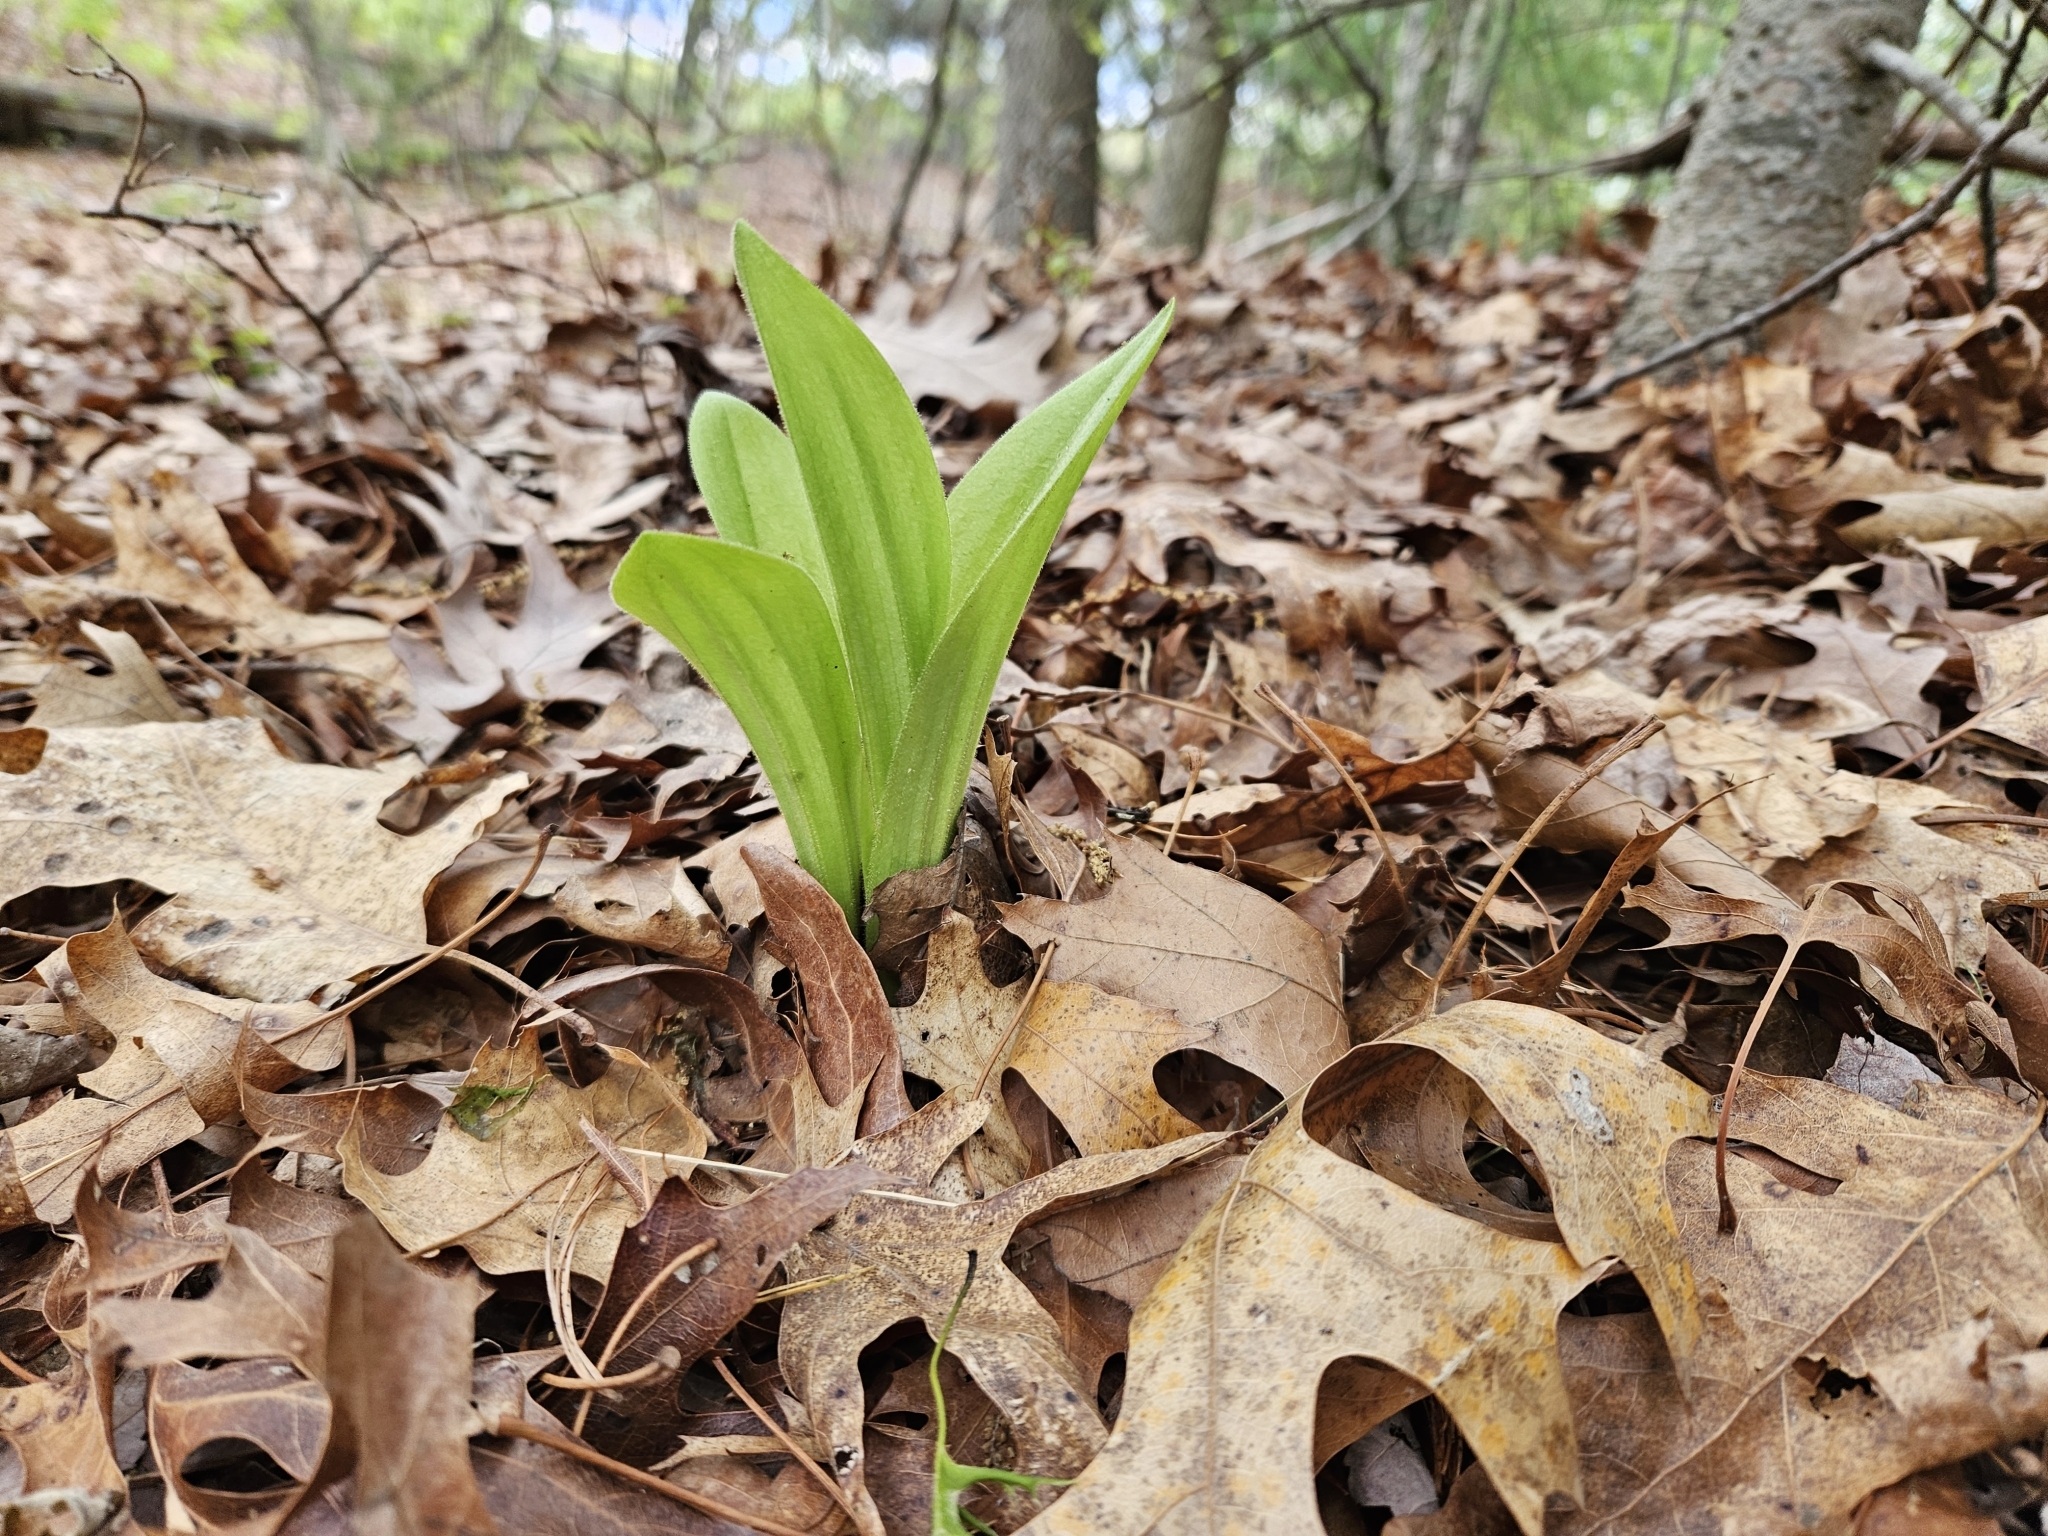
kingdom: Plantae
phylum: Tracheophyta
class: Liliopsida
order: Asparagales
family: Orchidaceae
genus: Cypripedium
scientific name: Cypripedium acaule
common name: Pink lady's-slipper
